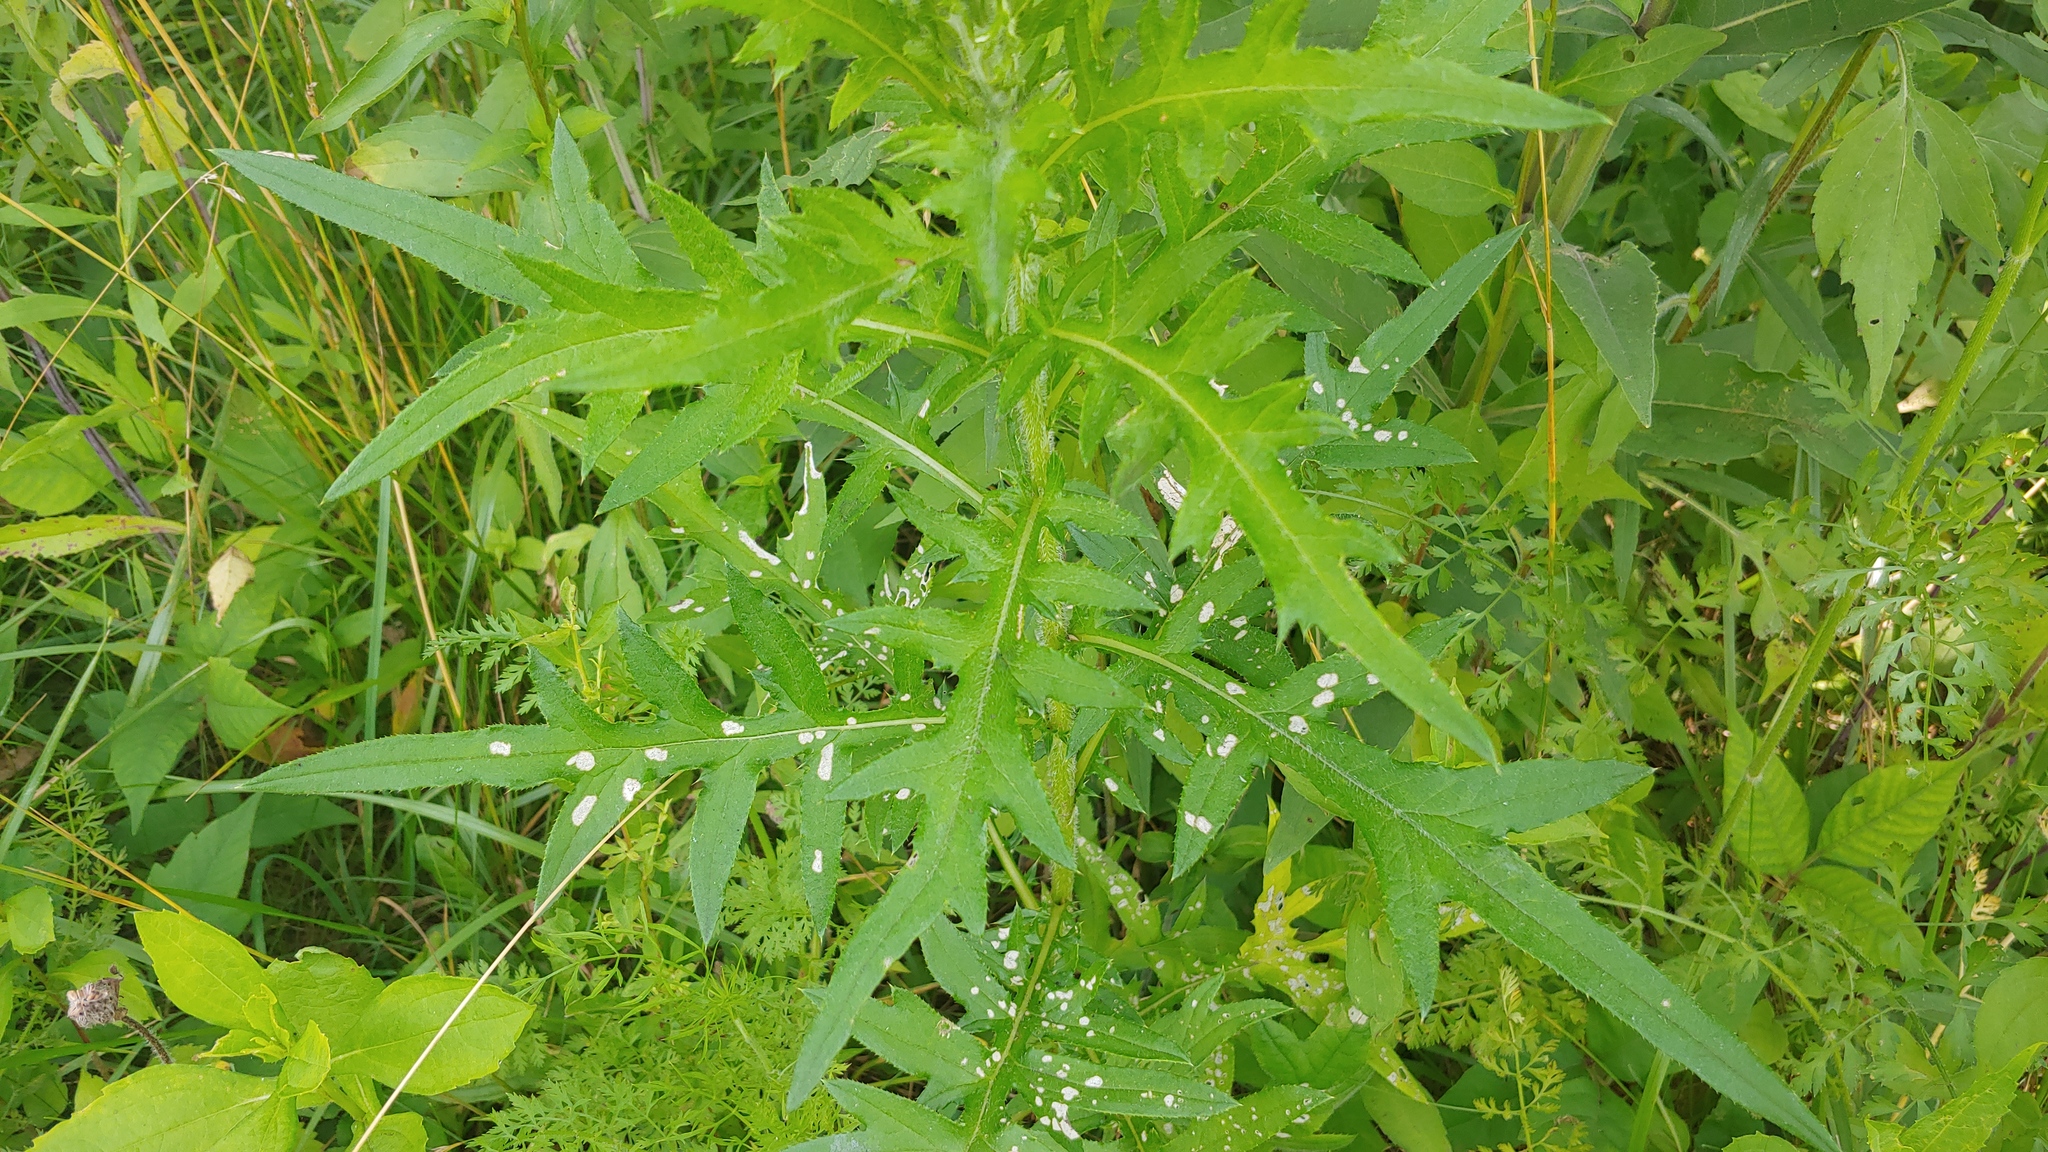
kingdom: Plantae
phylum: Tracheophyta
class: Magnoliopsida
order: Asterales
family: Asteraceae
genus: Cirsium
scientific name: Cirsium muticum
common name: Dunce-nettle
